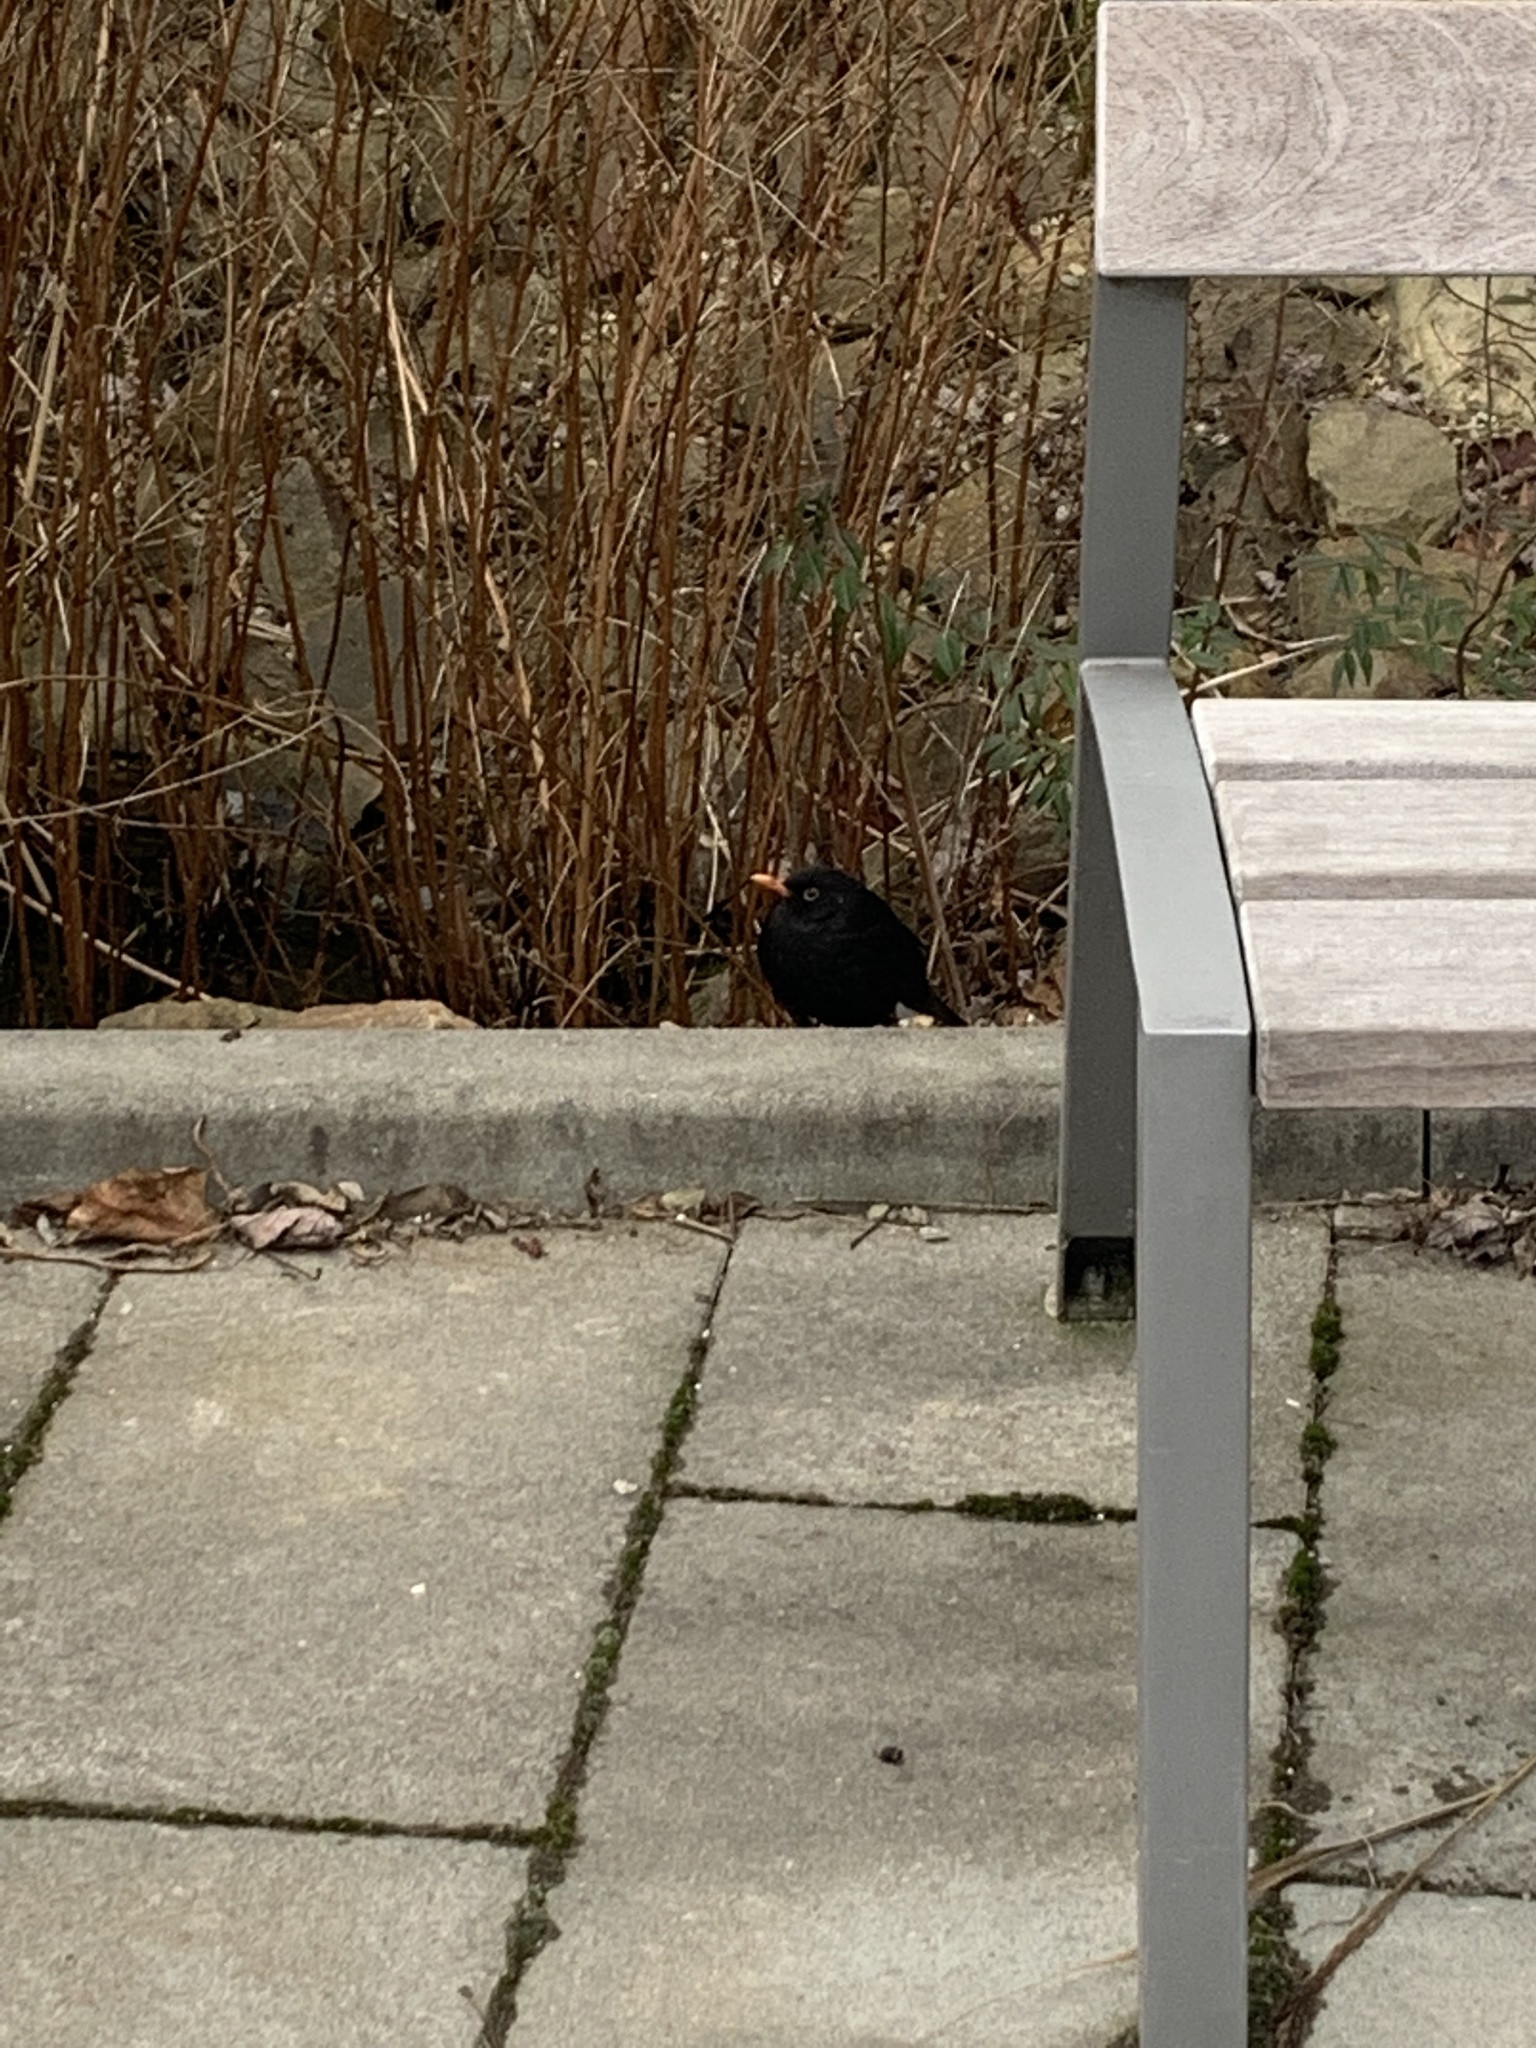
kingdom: Animalia
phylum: Chordata
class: Aves
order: Passeriformes
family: Turdidae
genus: Turdus
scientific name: Turdus merula
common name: Common blackbird
